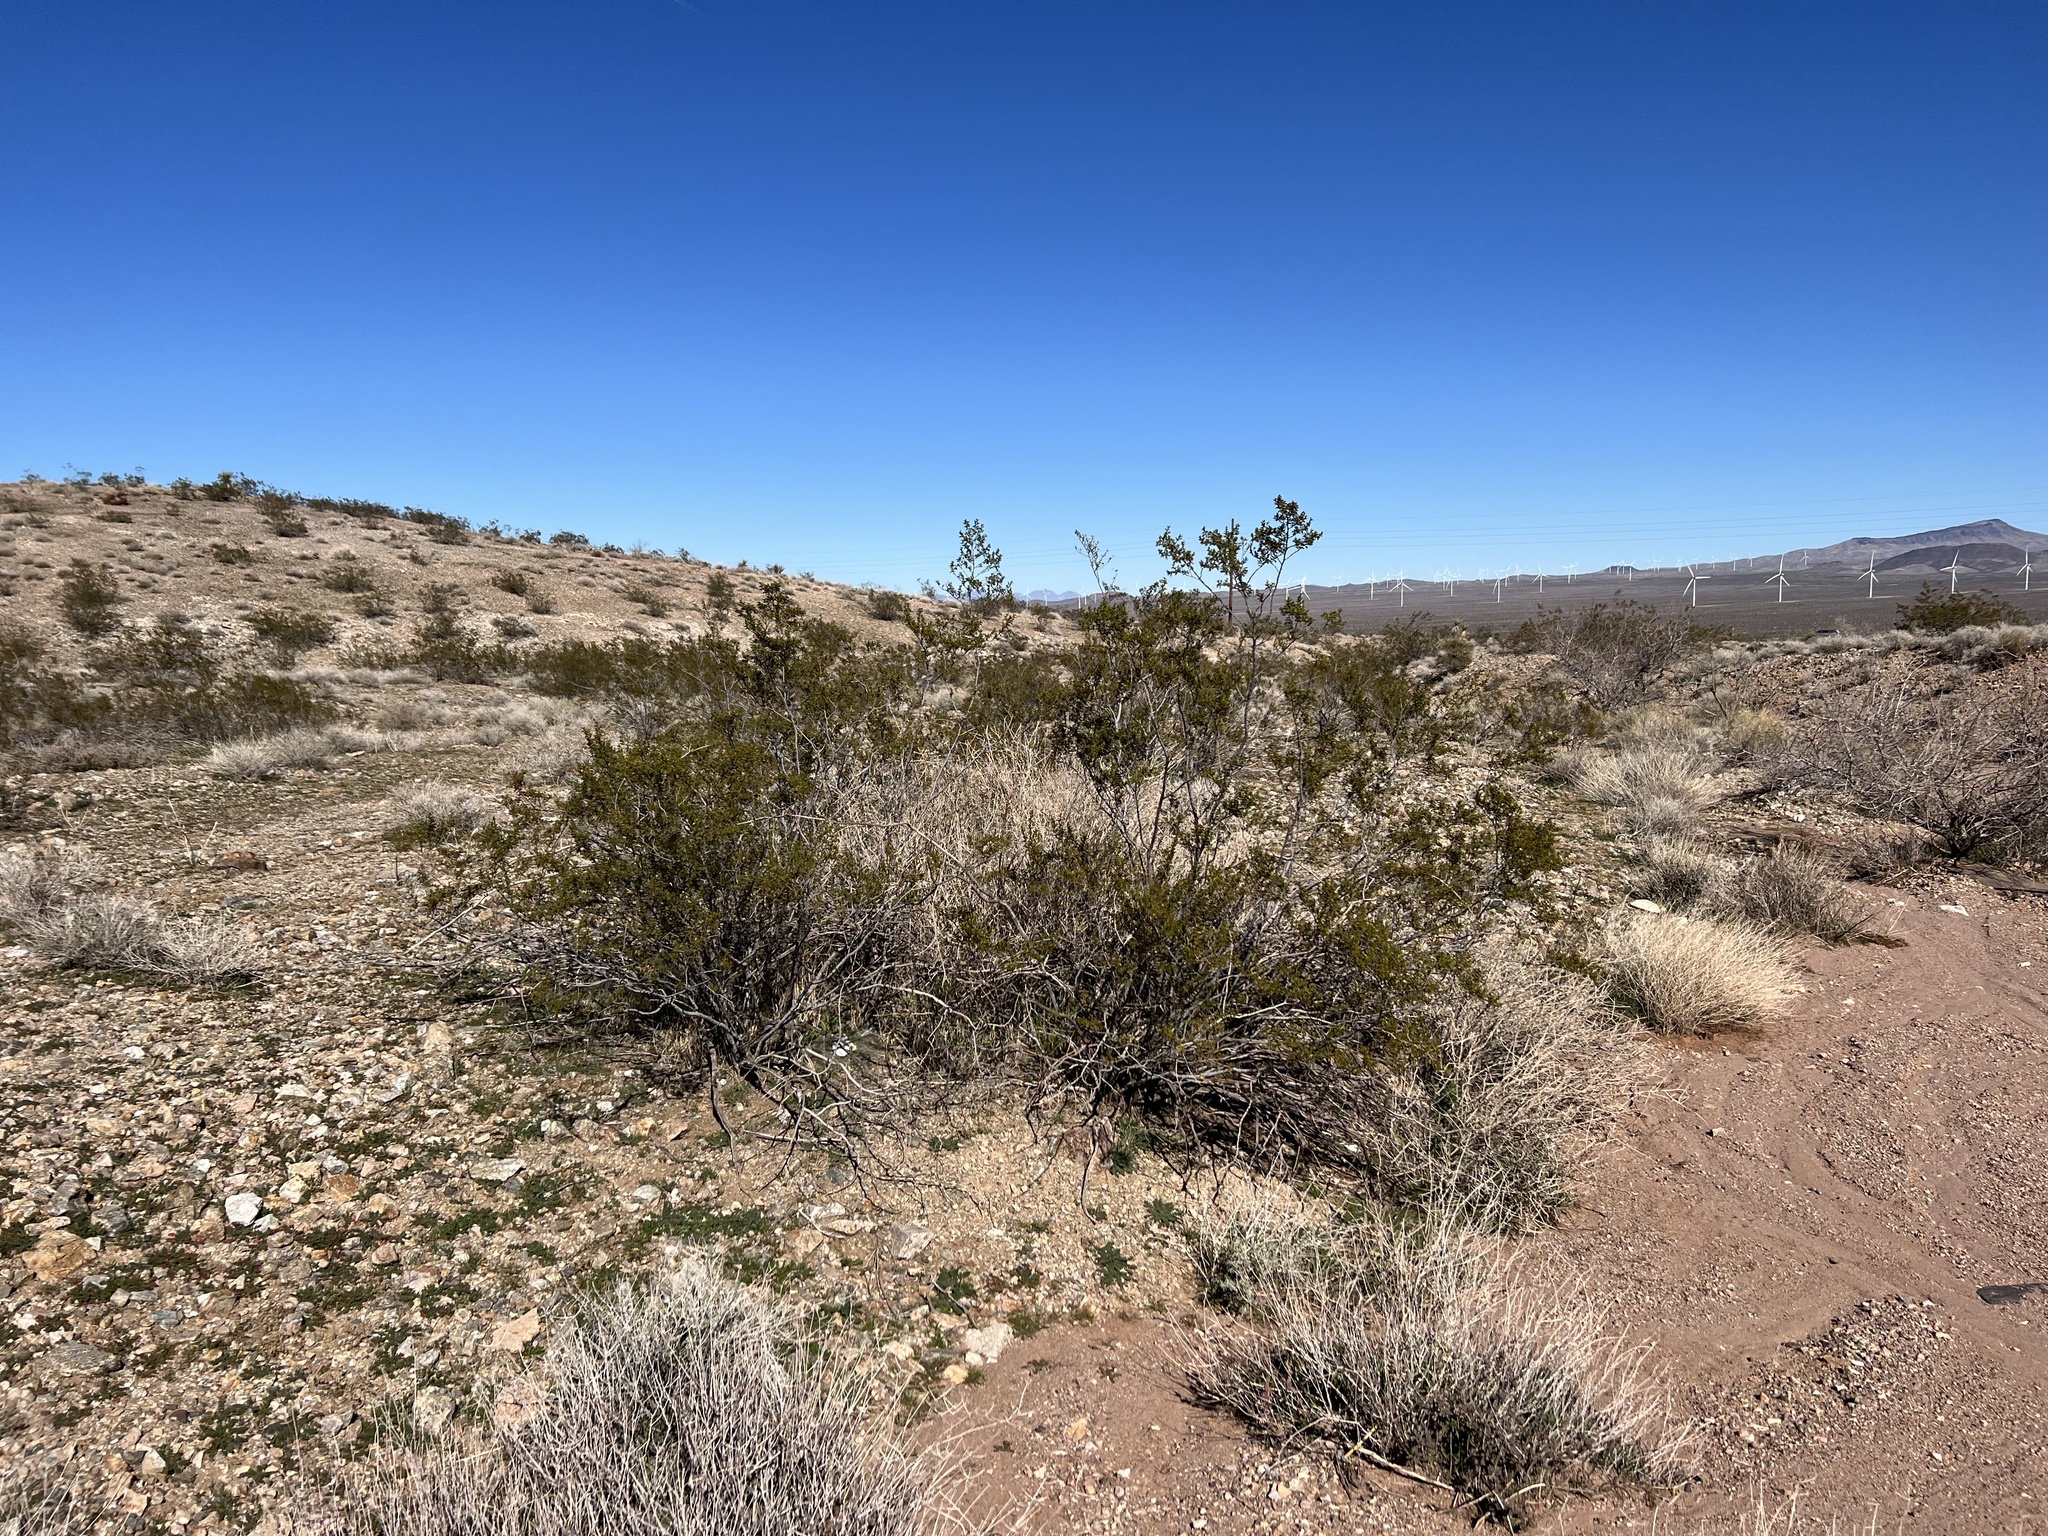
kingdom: Plantae
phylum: Tracheophyta
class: Magnoliopsida
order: Zygophyllales
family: Zygophyllaceae
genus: Larrea
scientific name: Larrea tridentata
